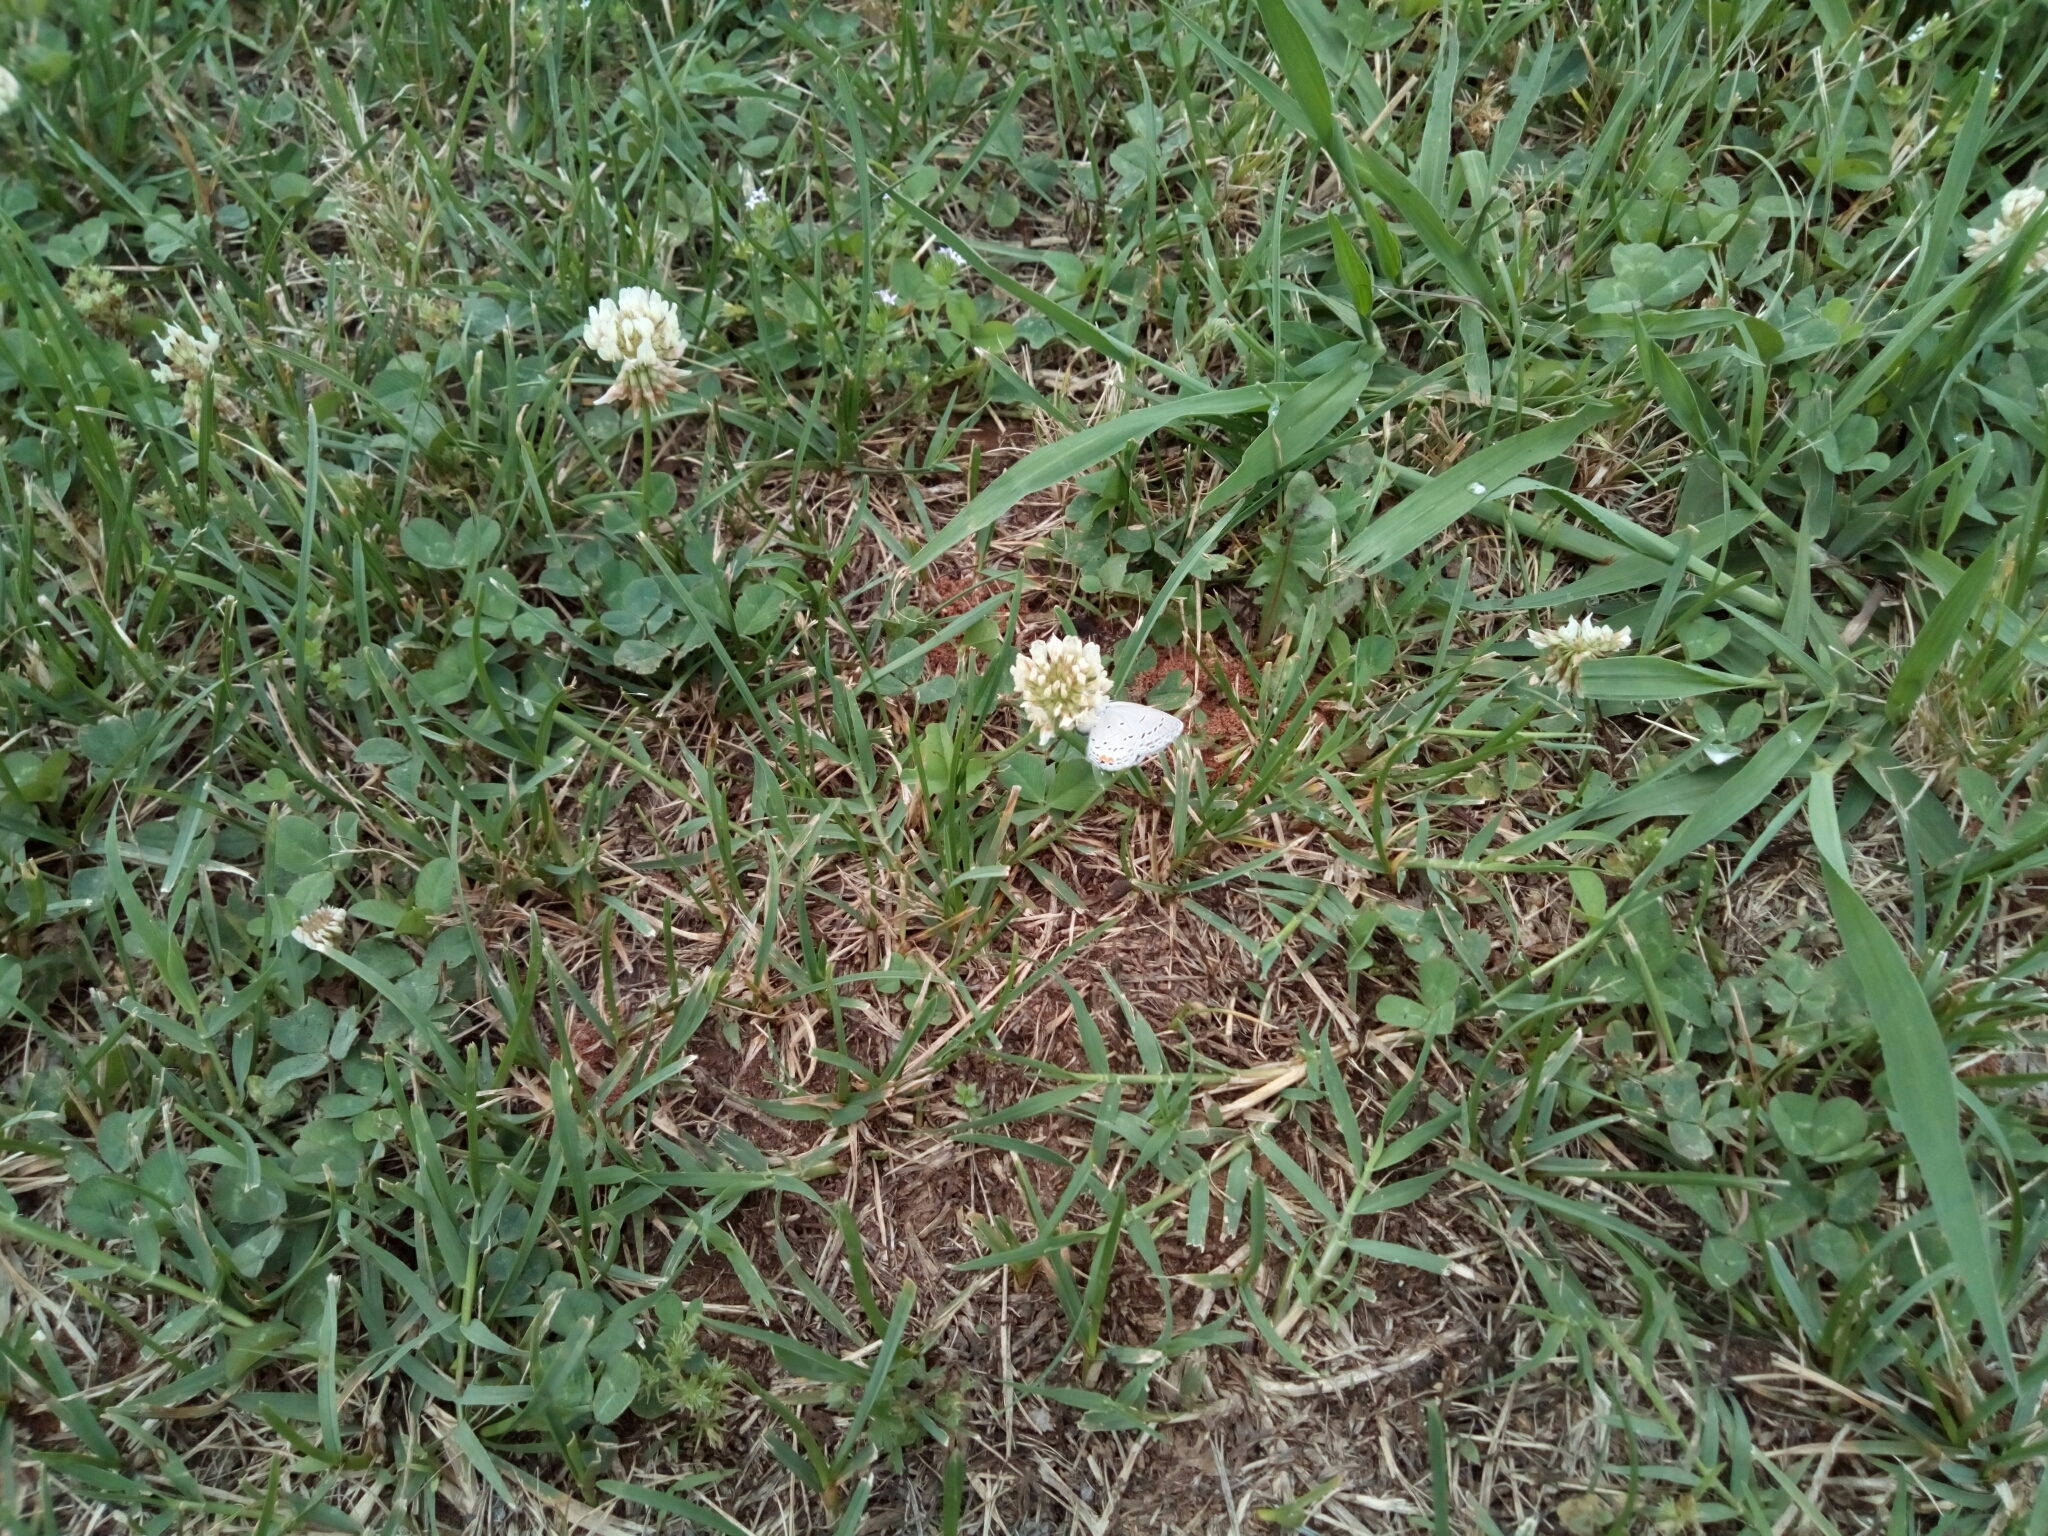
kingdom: Animalia
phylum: Arthropoda
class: Insecta
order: Lepidoptera
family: Lycaenidae
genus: Elkalyce
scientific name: Elkalyce comyntas
